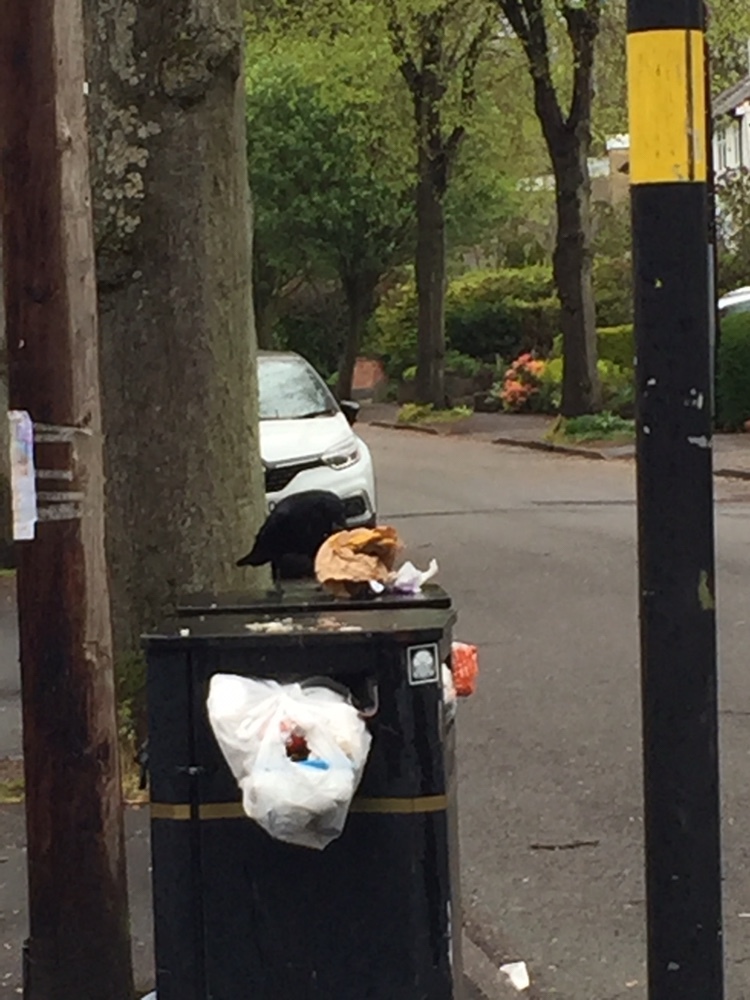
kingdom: Animalia
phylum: Chordata
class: Aves
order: Passeriformes
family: Corvidae
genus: Corvus
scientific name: Corvus corone
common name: Carrion crow
